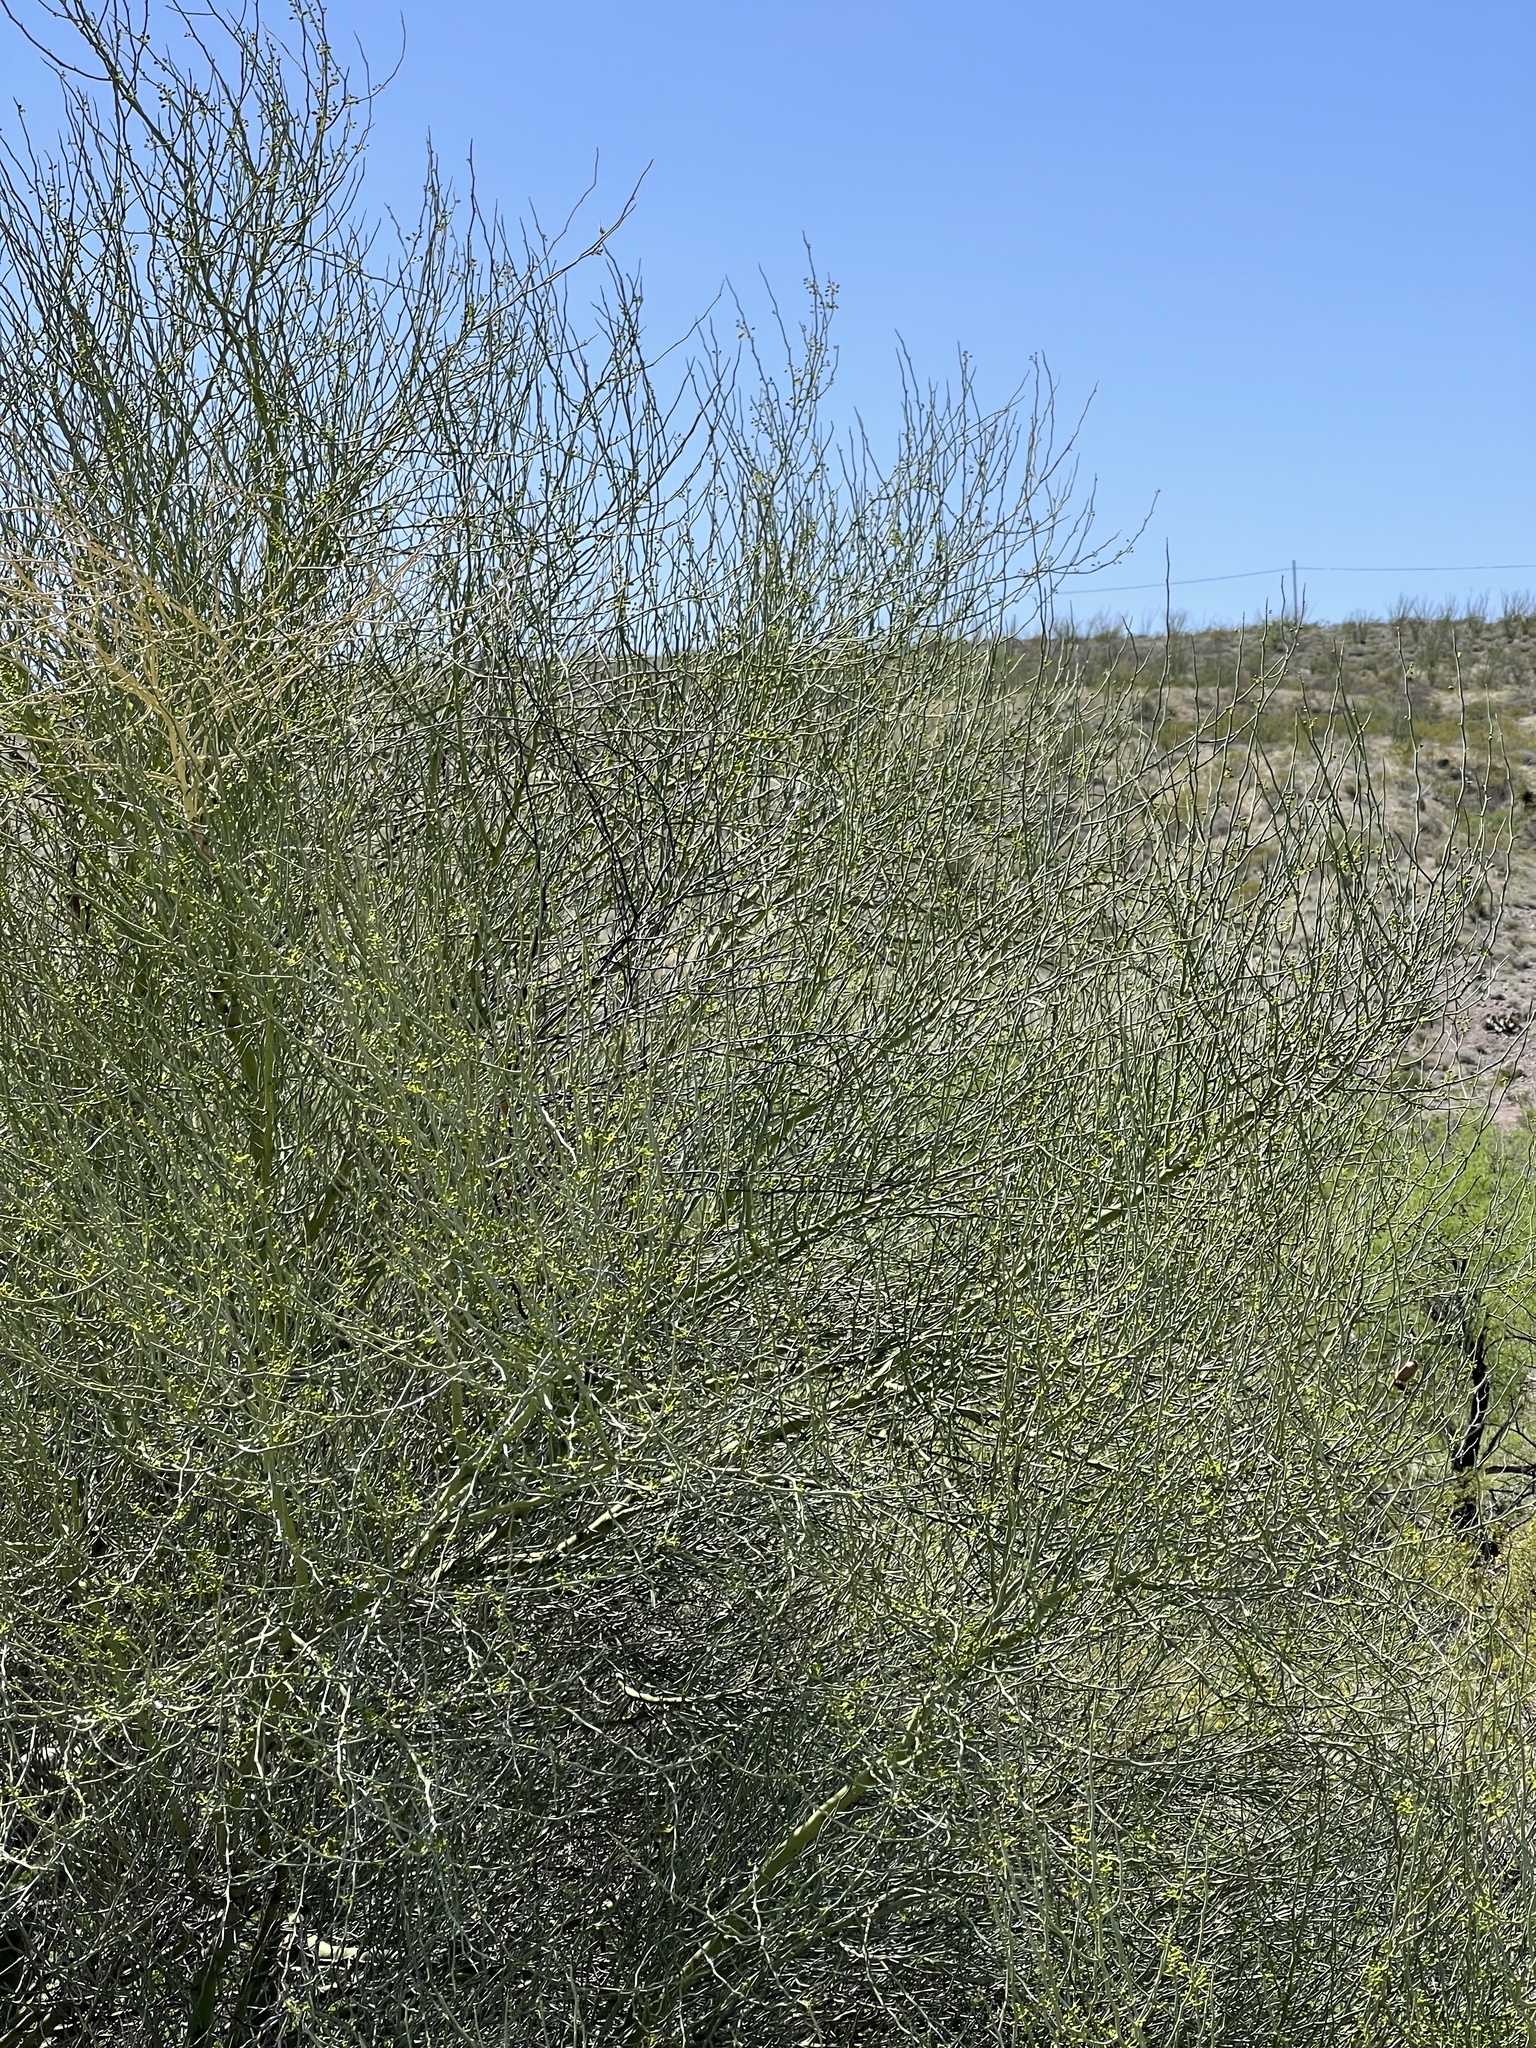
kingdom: Plantae
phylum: Tracheophyta
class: Magnoliopsida
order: Fabales
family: Fabaceae
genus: Parkinsonia
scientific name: Parkinsonia microphylla
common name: Yellow paloverde
